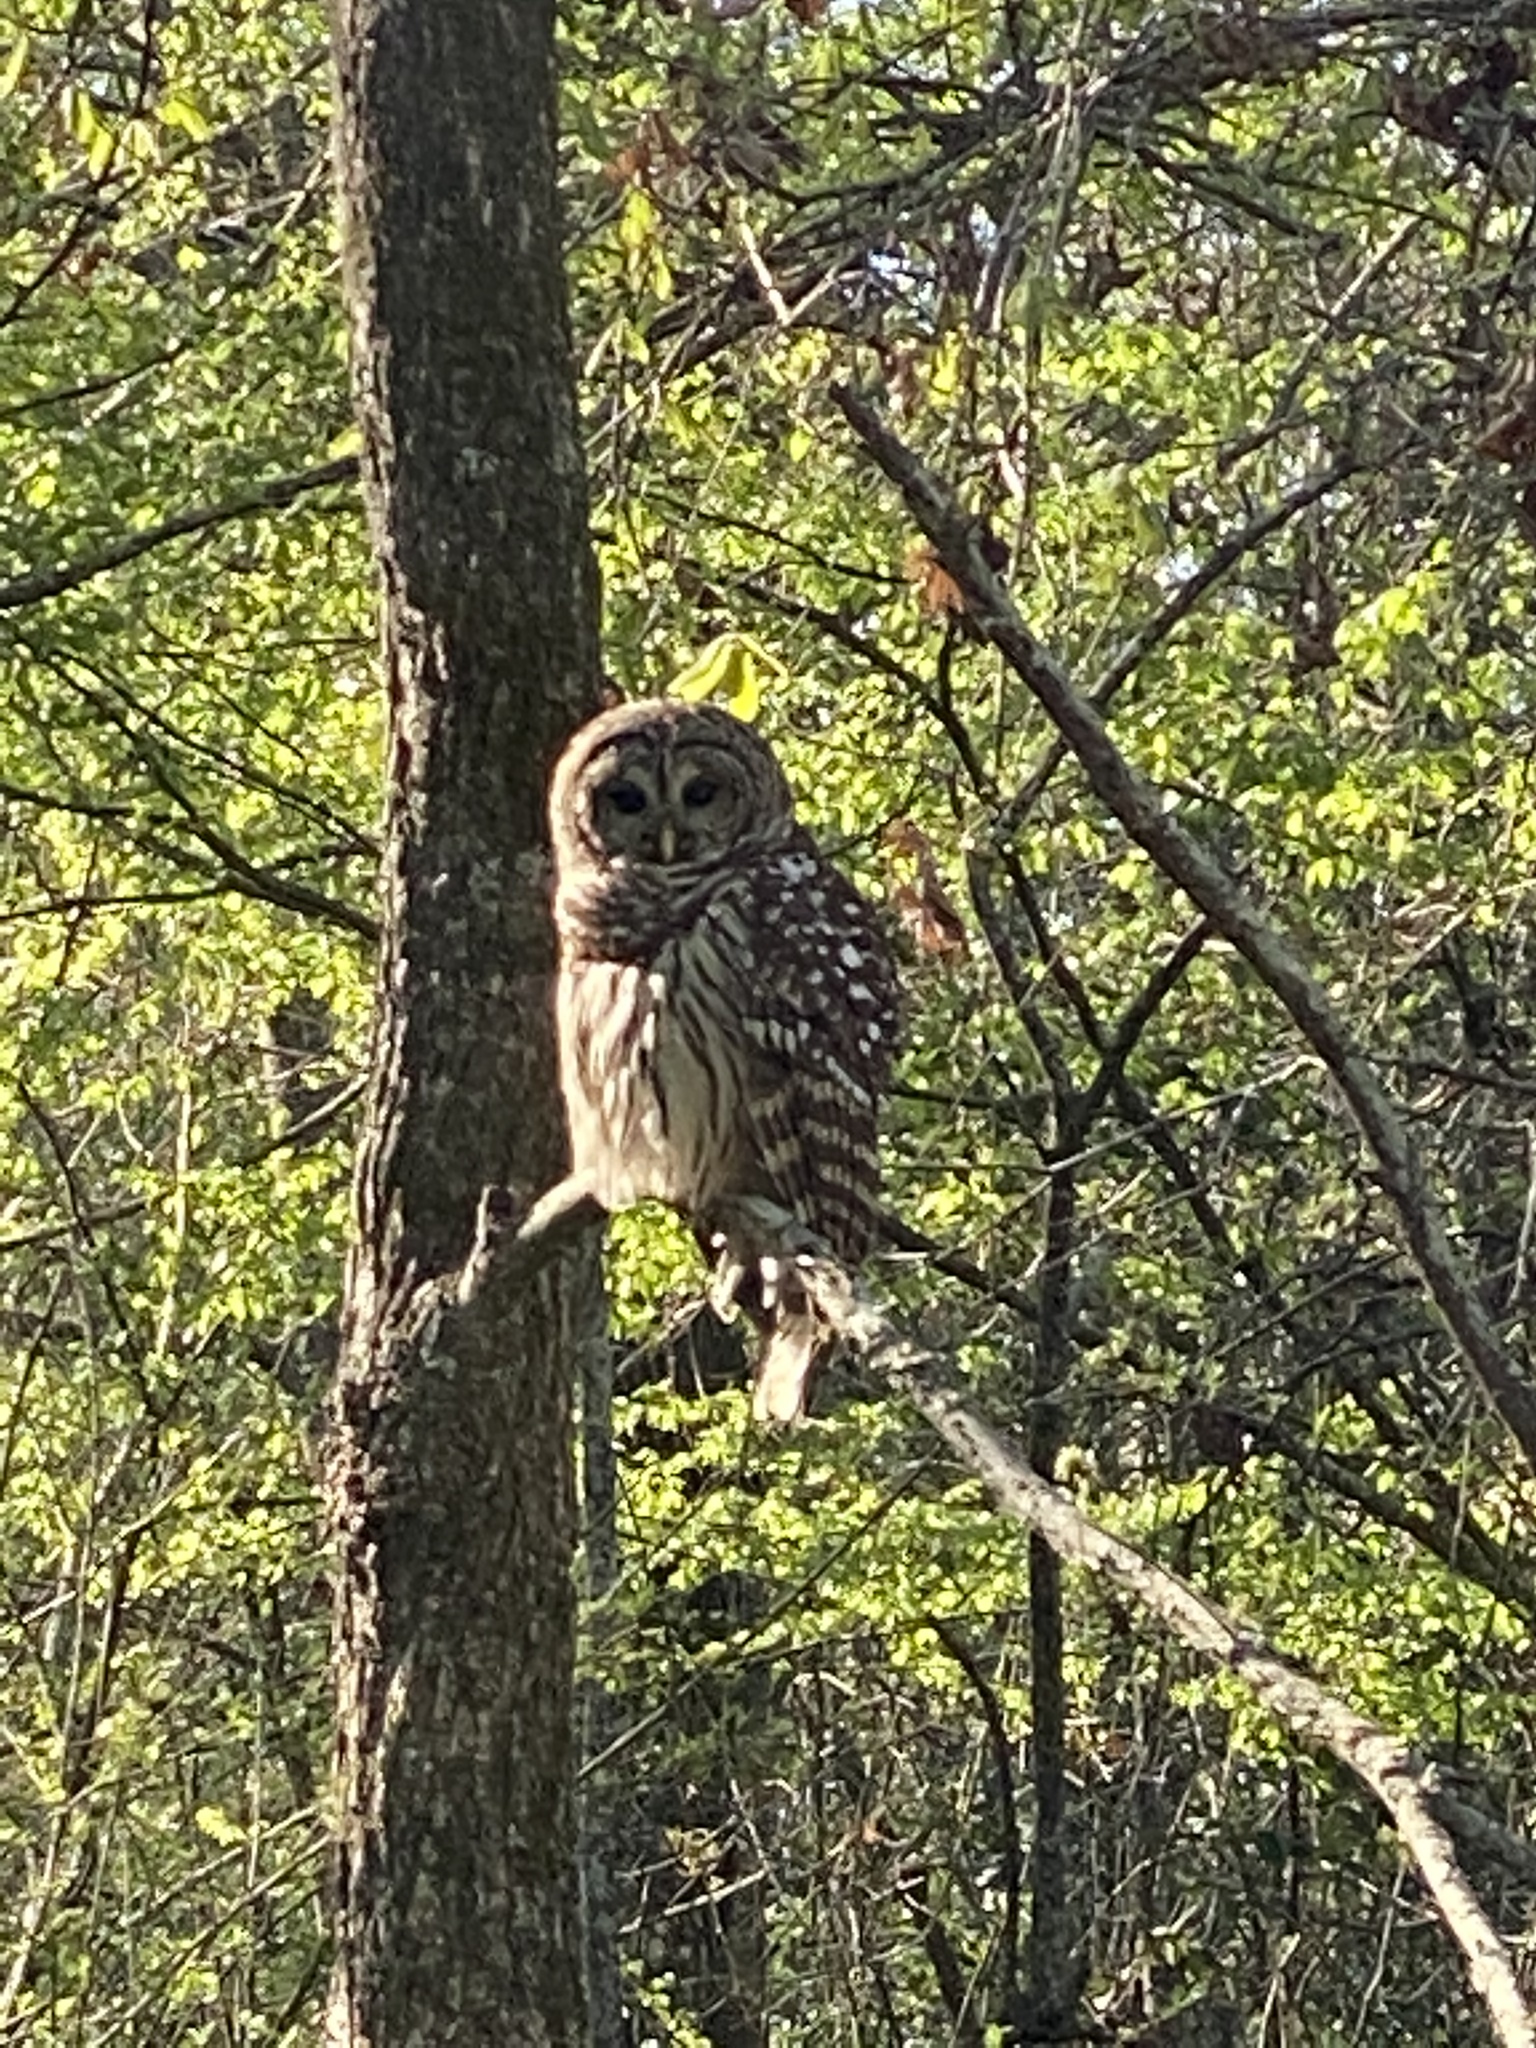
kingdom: Animalia
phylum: Chordata
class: Aves
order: Strigiformes
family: Strigidae
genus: Strix
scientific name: Strix varia
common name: Barred owl
